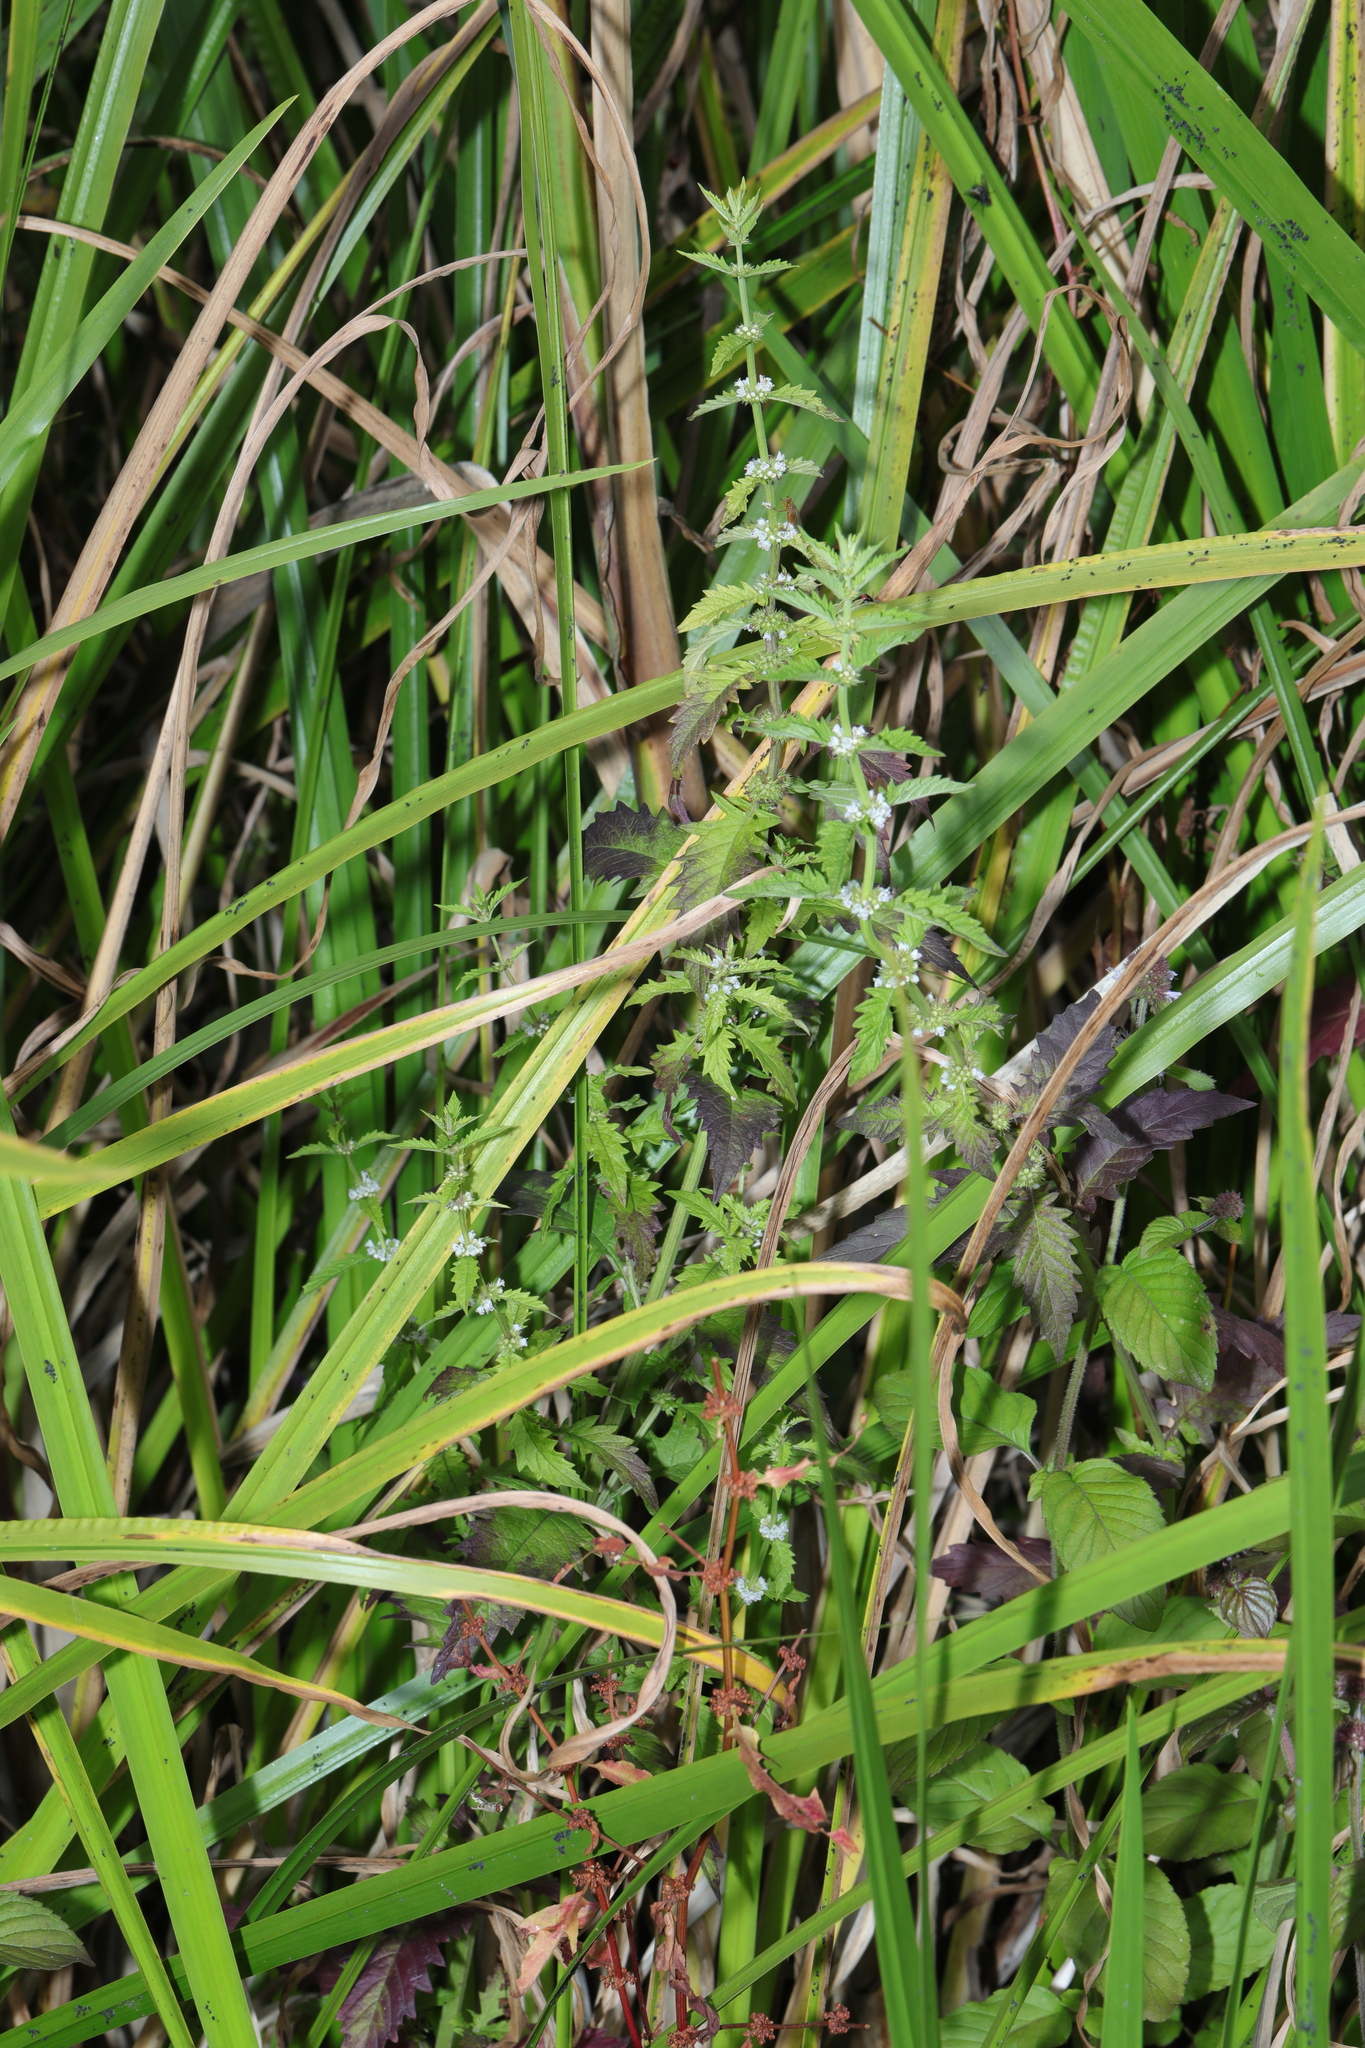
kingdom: Plantae
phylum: Tracheophyta
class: Magnoliopsida
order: Lamiales
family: Lamiaceae
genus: Lycopus
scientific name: Lycopus europaeus
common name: European bugleweed
